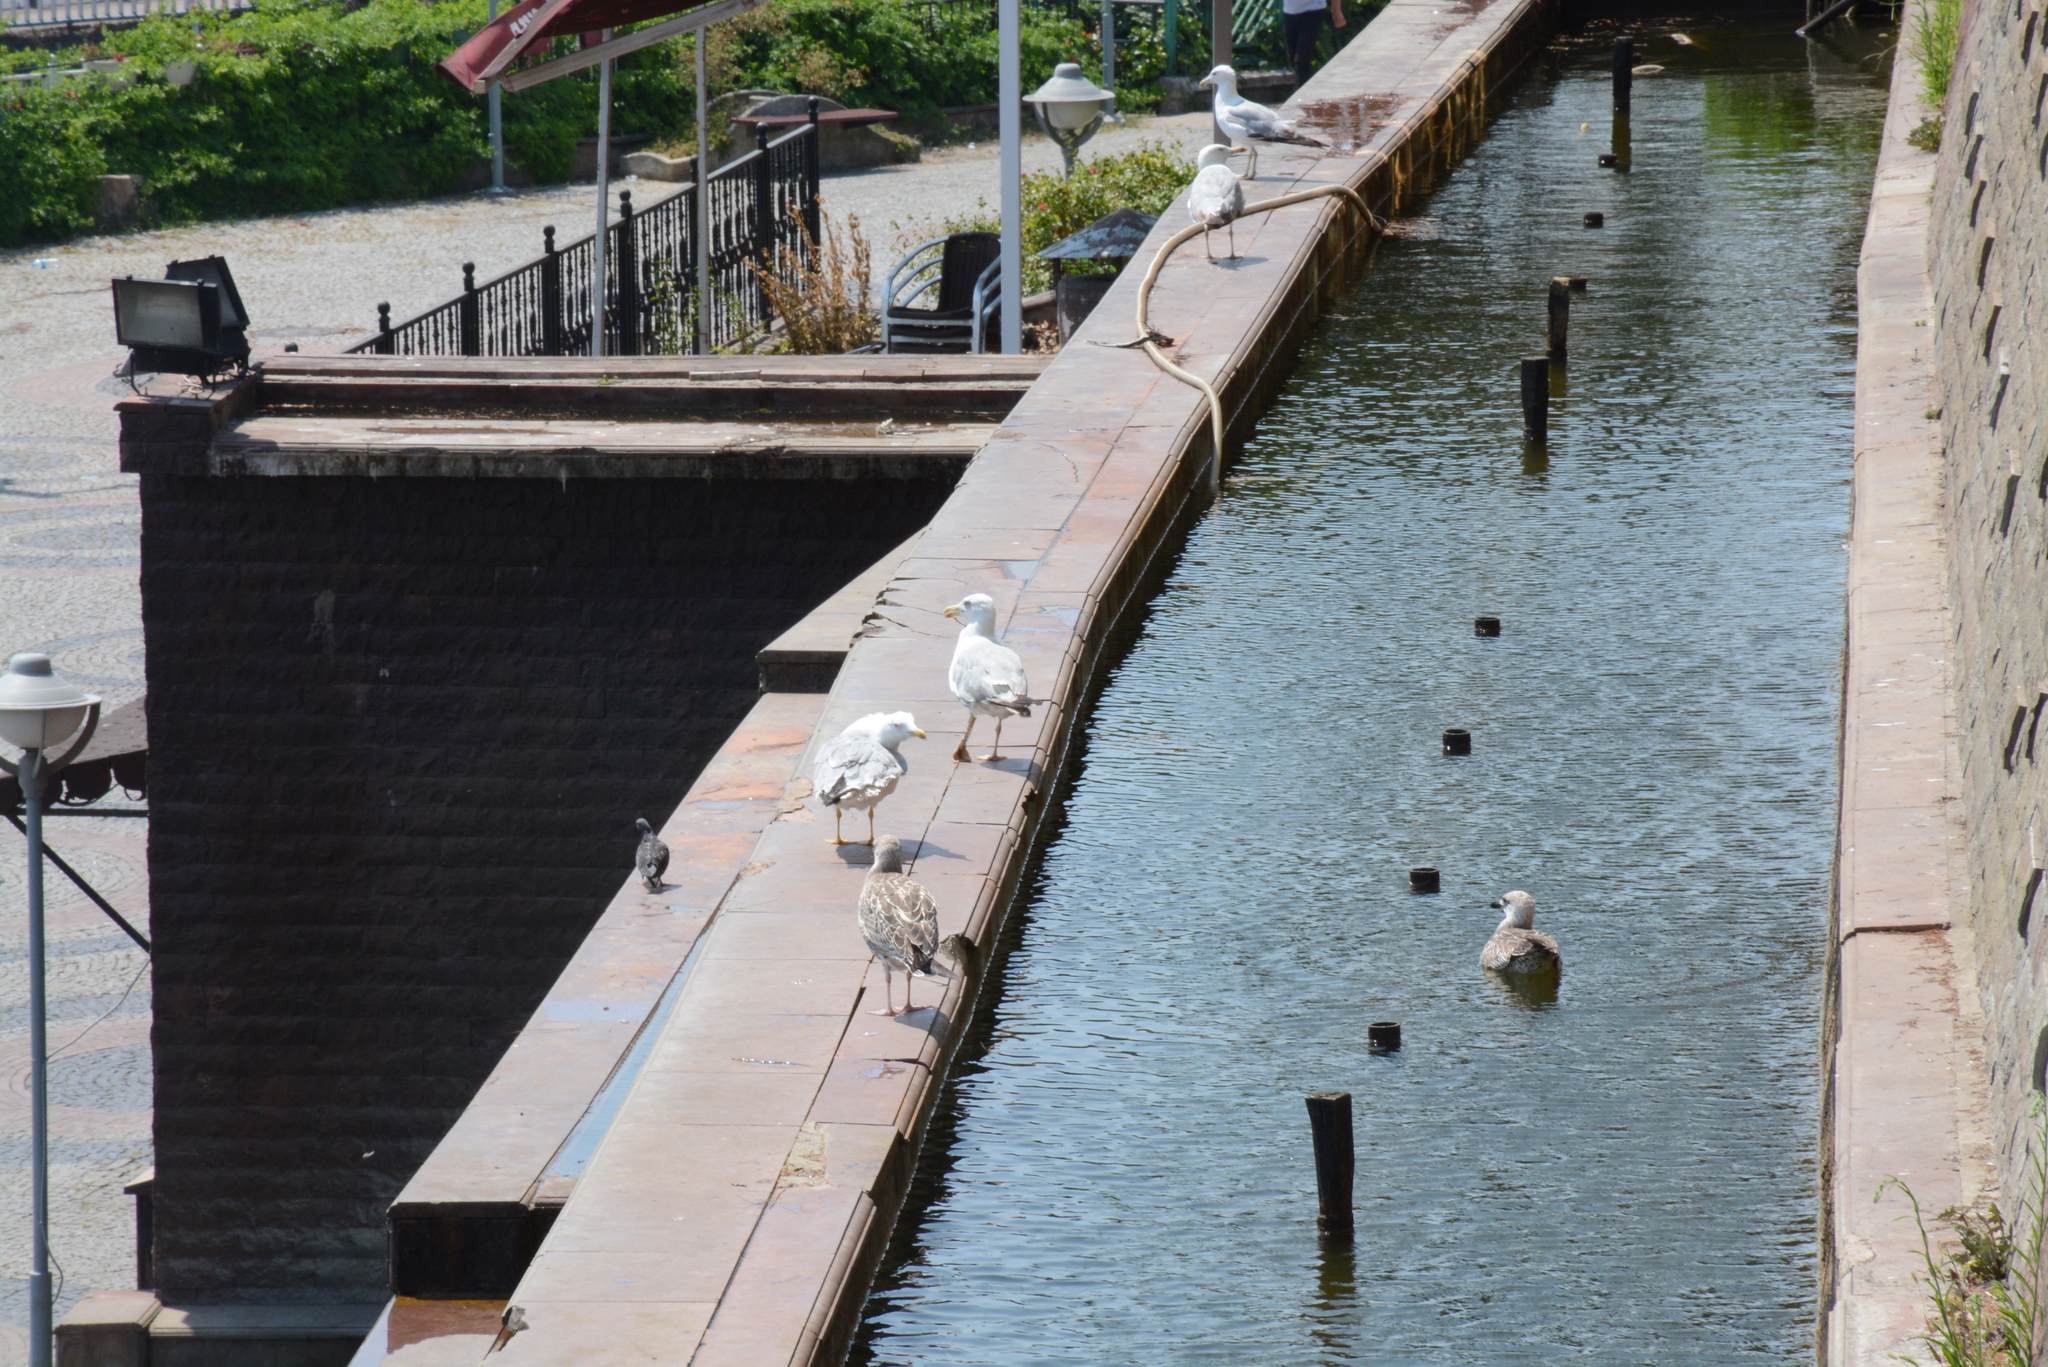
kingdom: Animalia
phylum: Chordata
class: Aves
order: Charadriiformes
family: Laridae
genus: Larus
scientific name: Larus michahellis
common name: Yellow-legged gull
